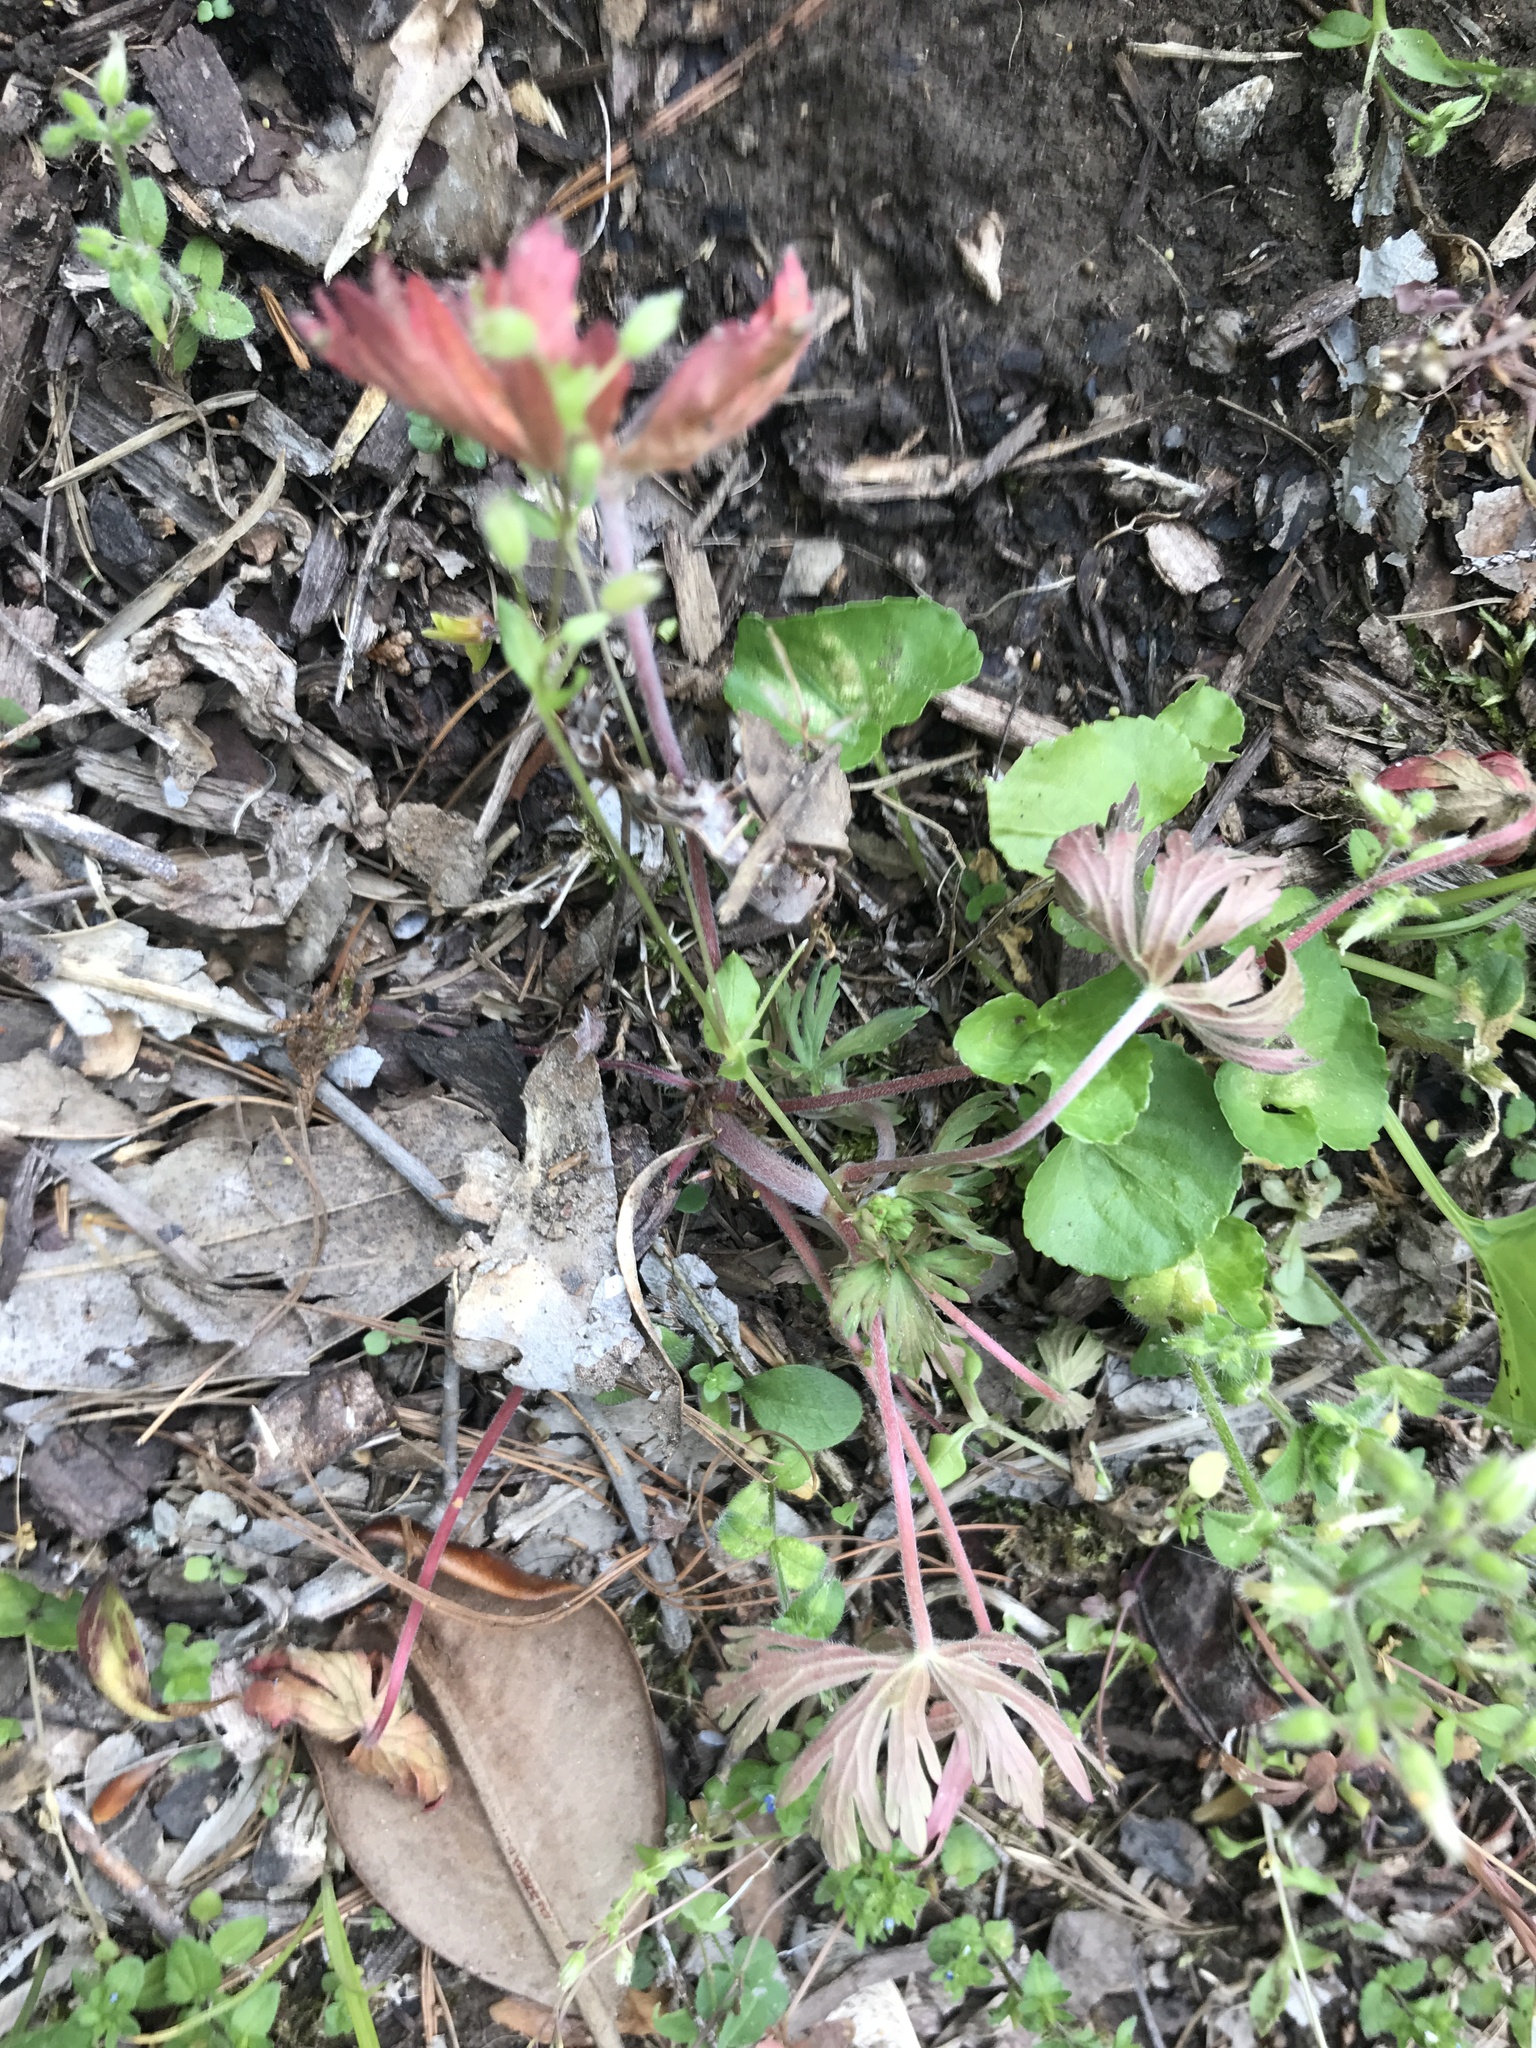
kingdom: Plantae
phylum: Tracheophyta
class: Magnoliopsida
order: Geraniales
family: Geraniaceae
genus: Geranium
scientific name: Geranium carolinianum
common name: Carolina crane's-bill
